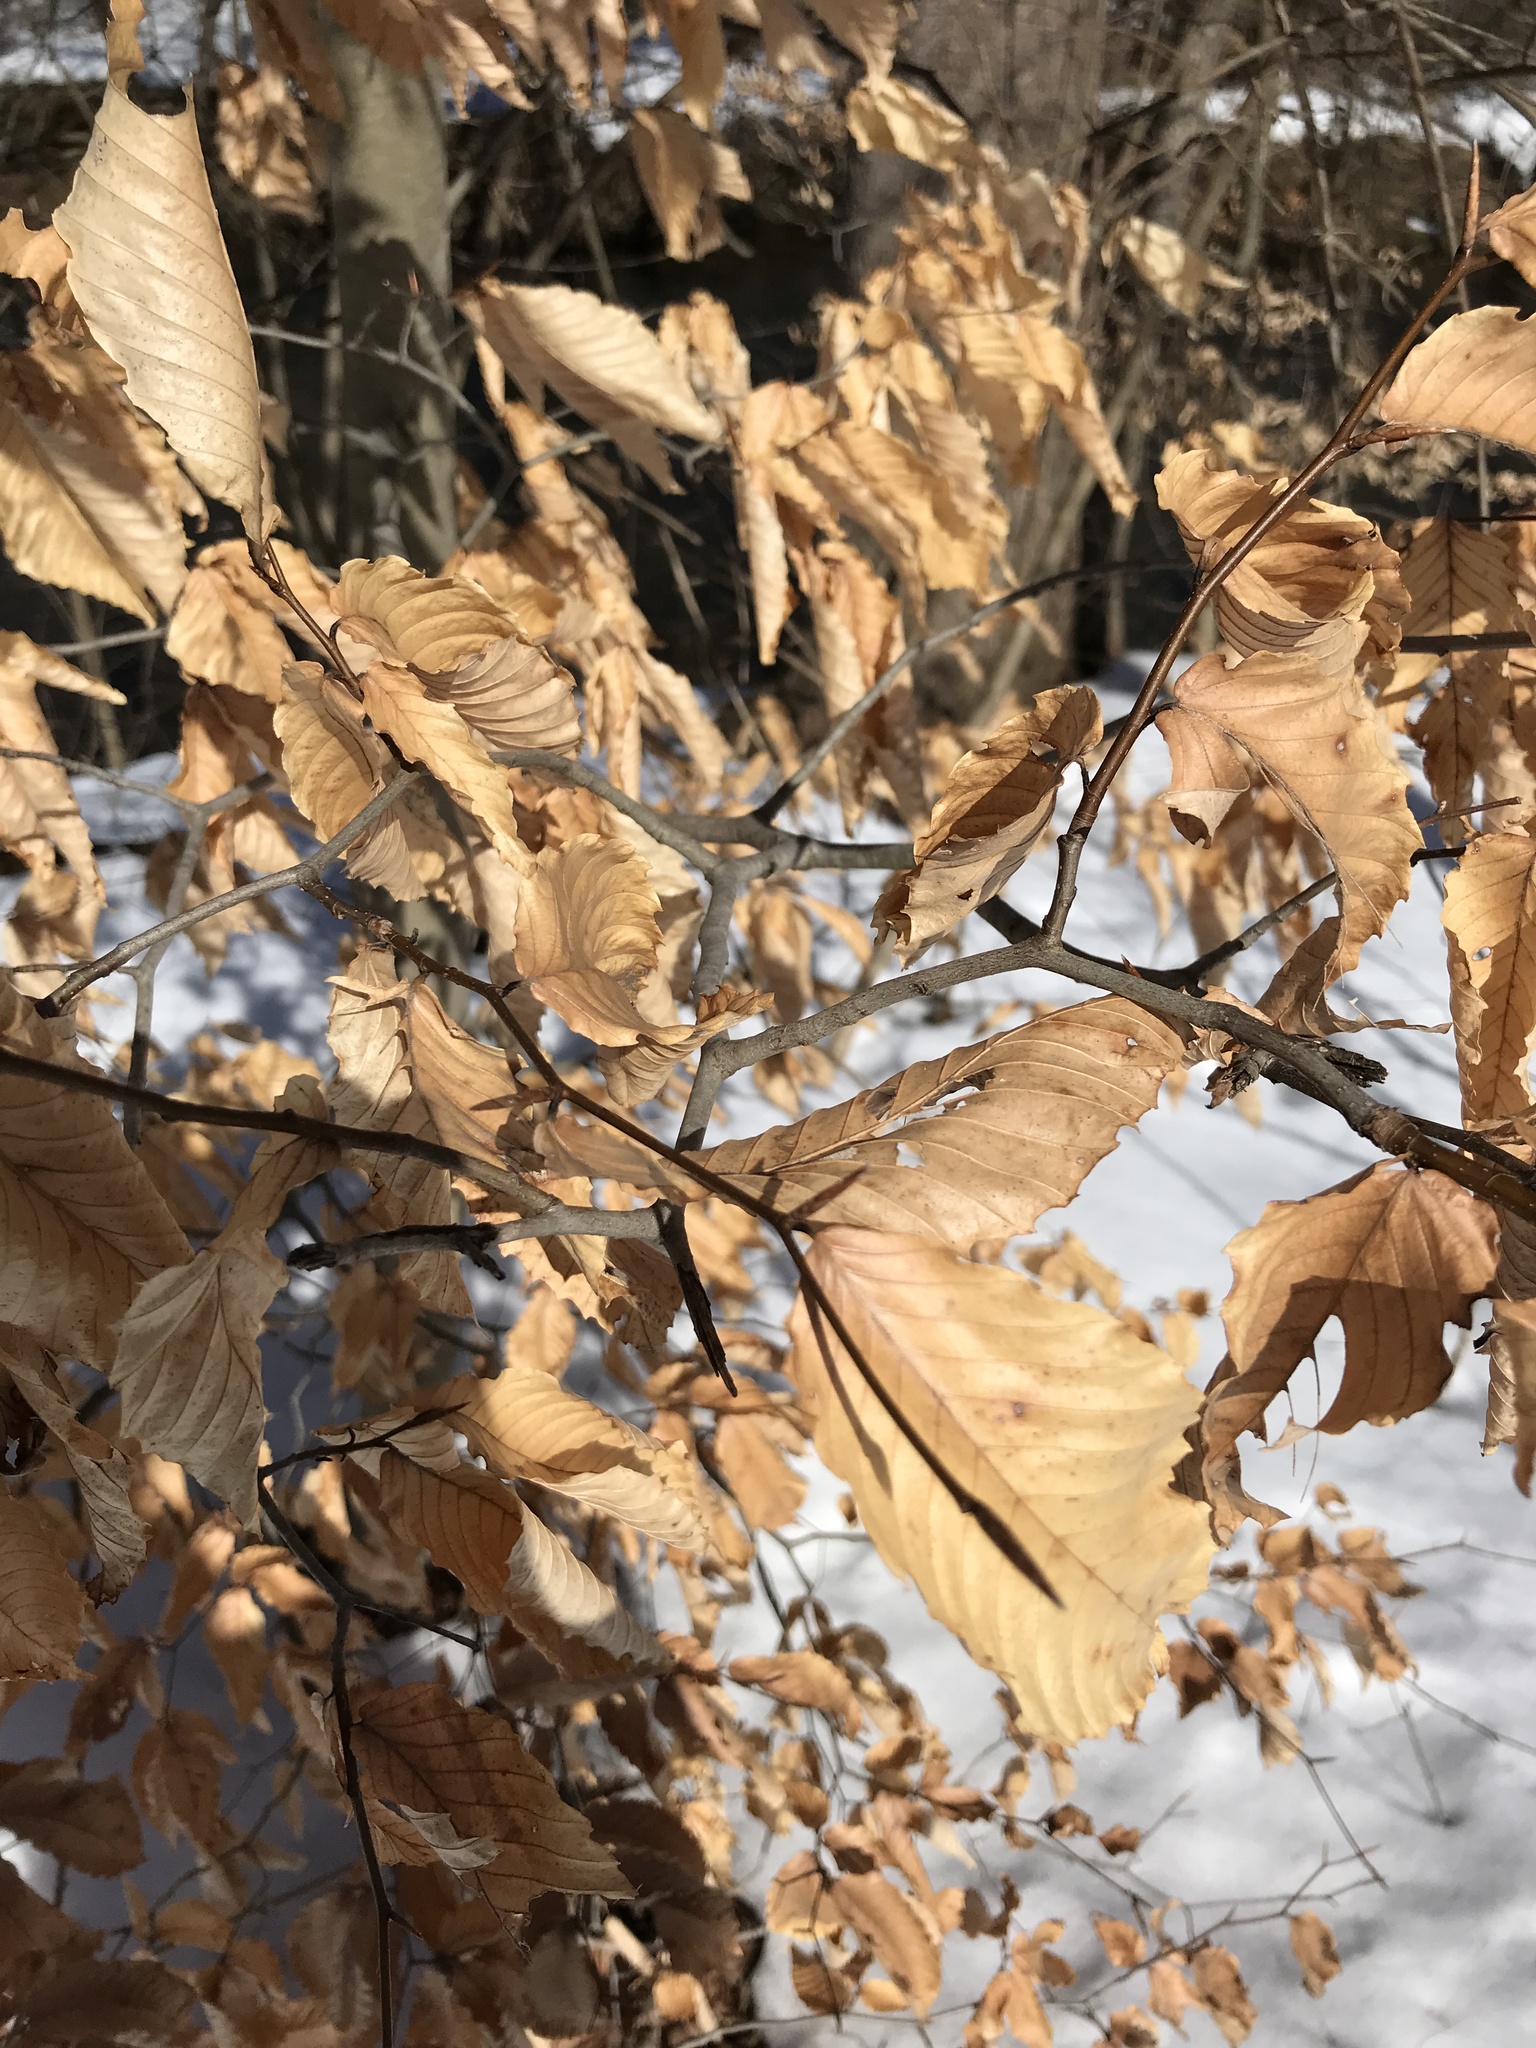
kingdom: Plantae
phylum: Tracheophyta
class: Magnoliopsida
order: Fagales
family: Fagaceae
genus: Fagus
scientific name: Fagus grandifolia
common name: American beech
